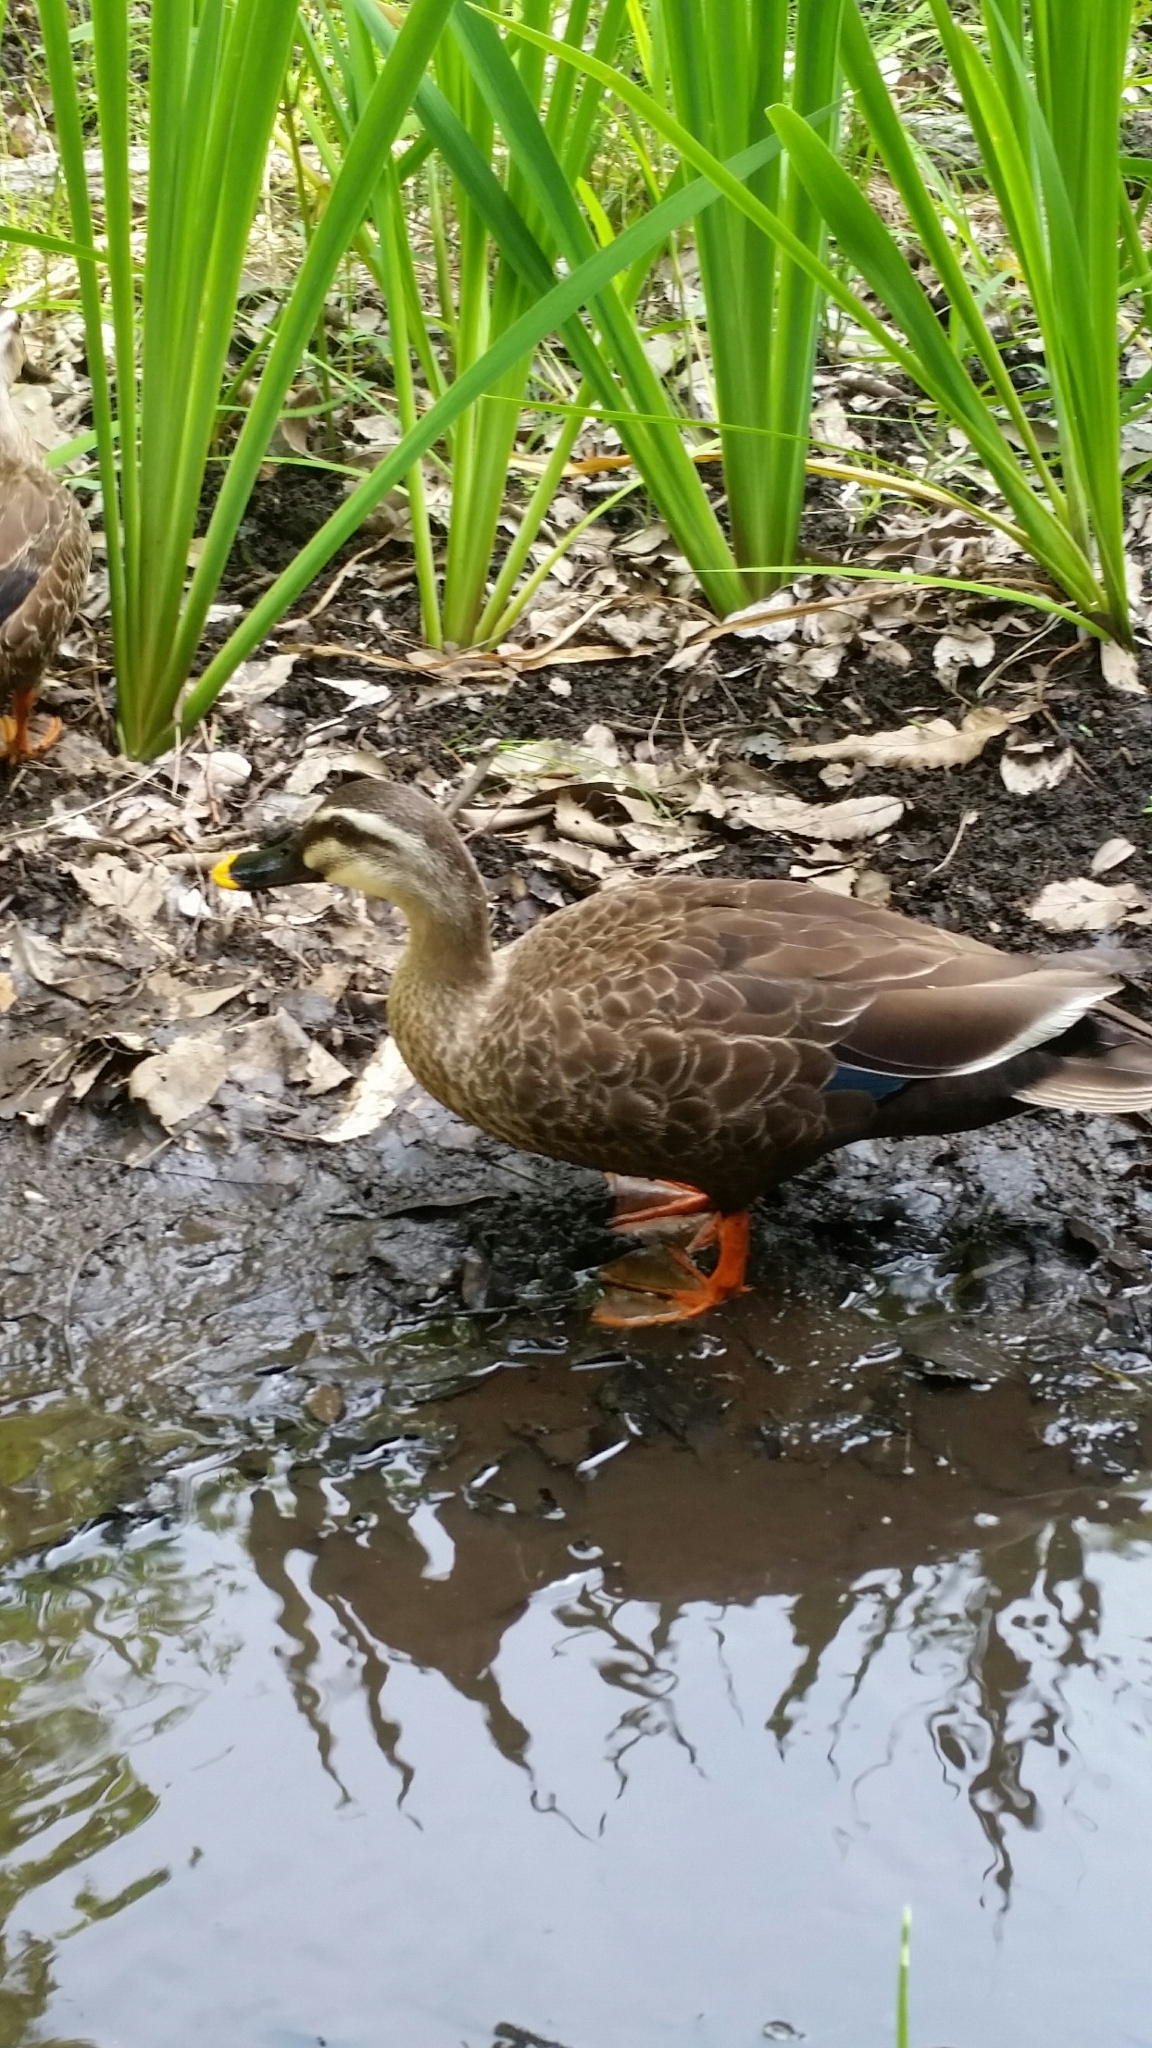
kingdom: Animalia
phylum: Chordata
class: Aves
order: Anseriformes
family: Anatidae
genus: Anas
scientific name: Anas zonorhyncha
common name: Eastern spot-billed duck
